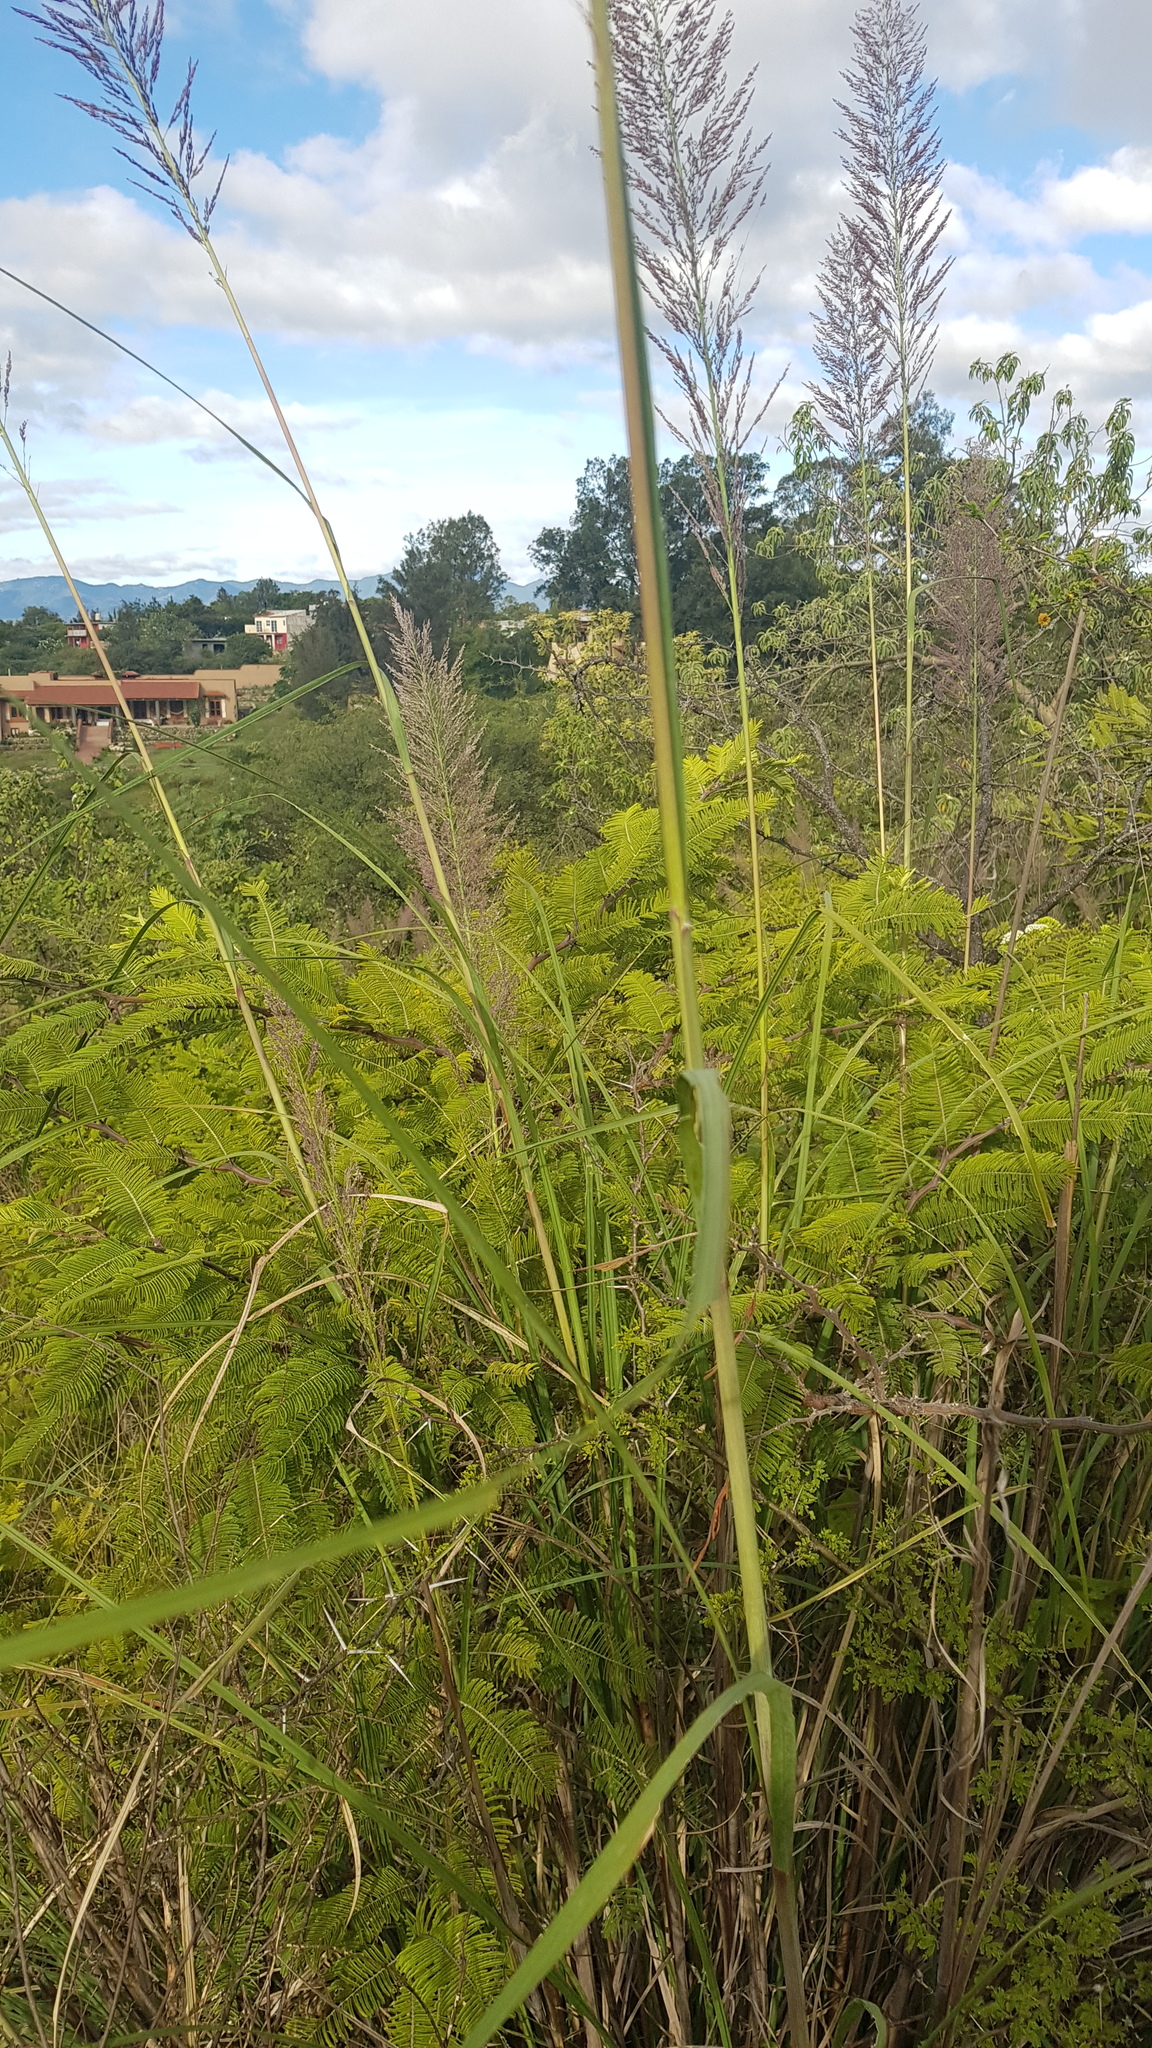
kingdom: Plantae
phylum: Tracheophyta
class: Liliopsida
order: Poales
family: Poaceae
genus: Muhlenbergia
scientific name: Muhlenbergia capillaris
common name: Purple grass
